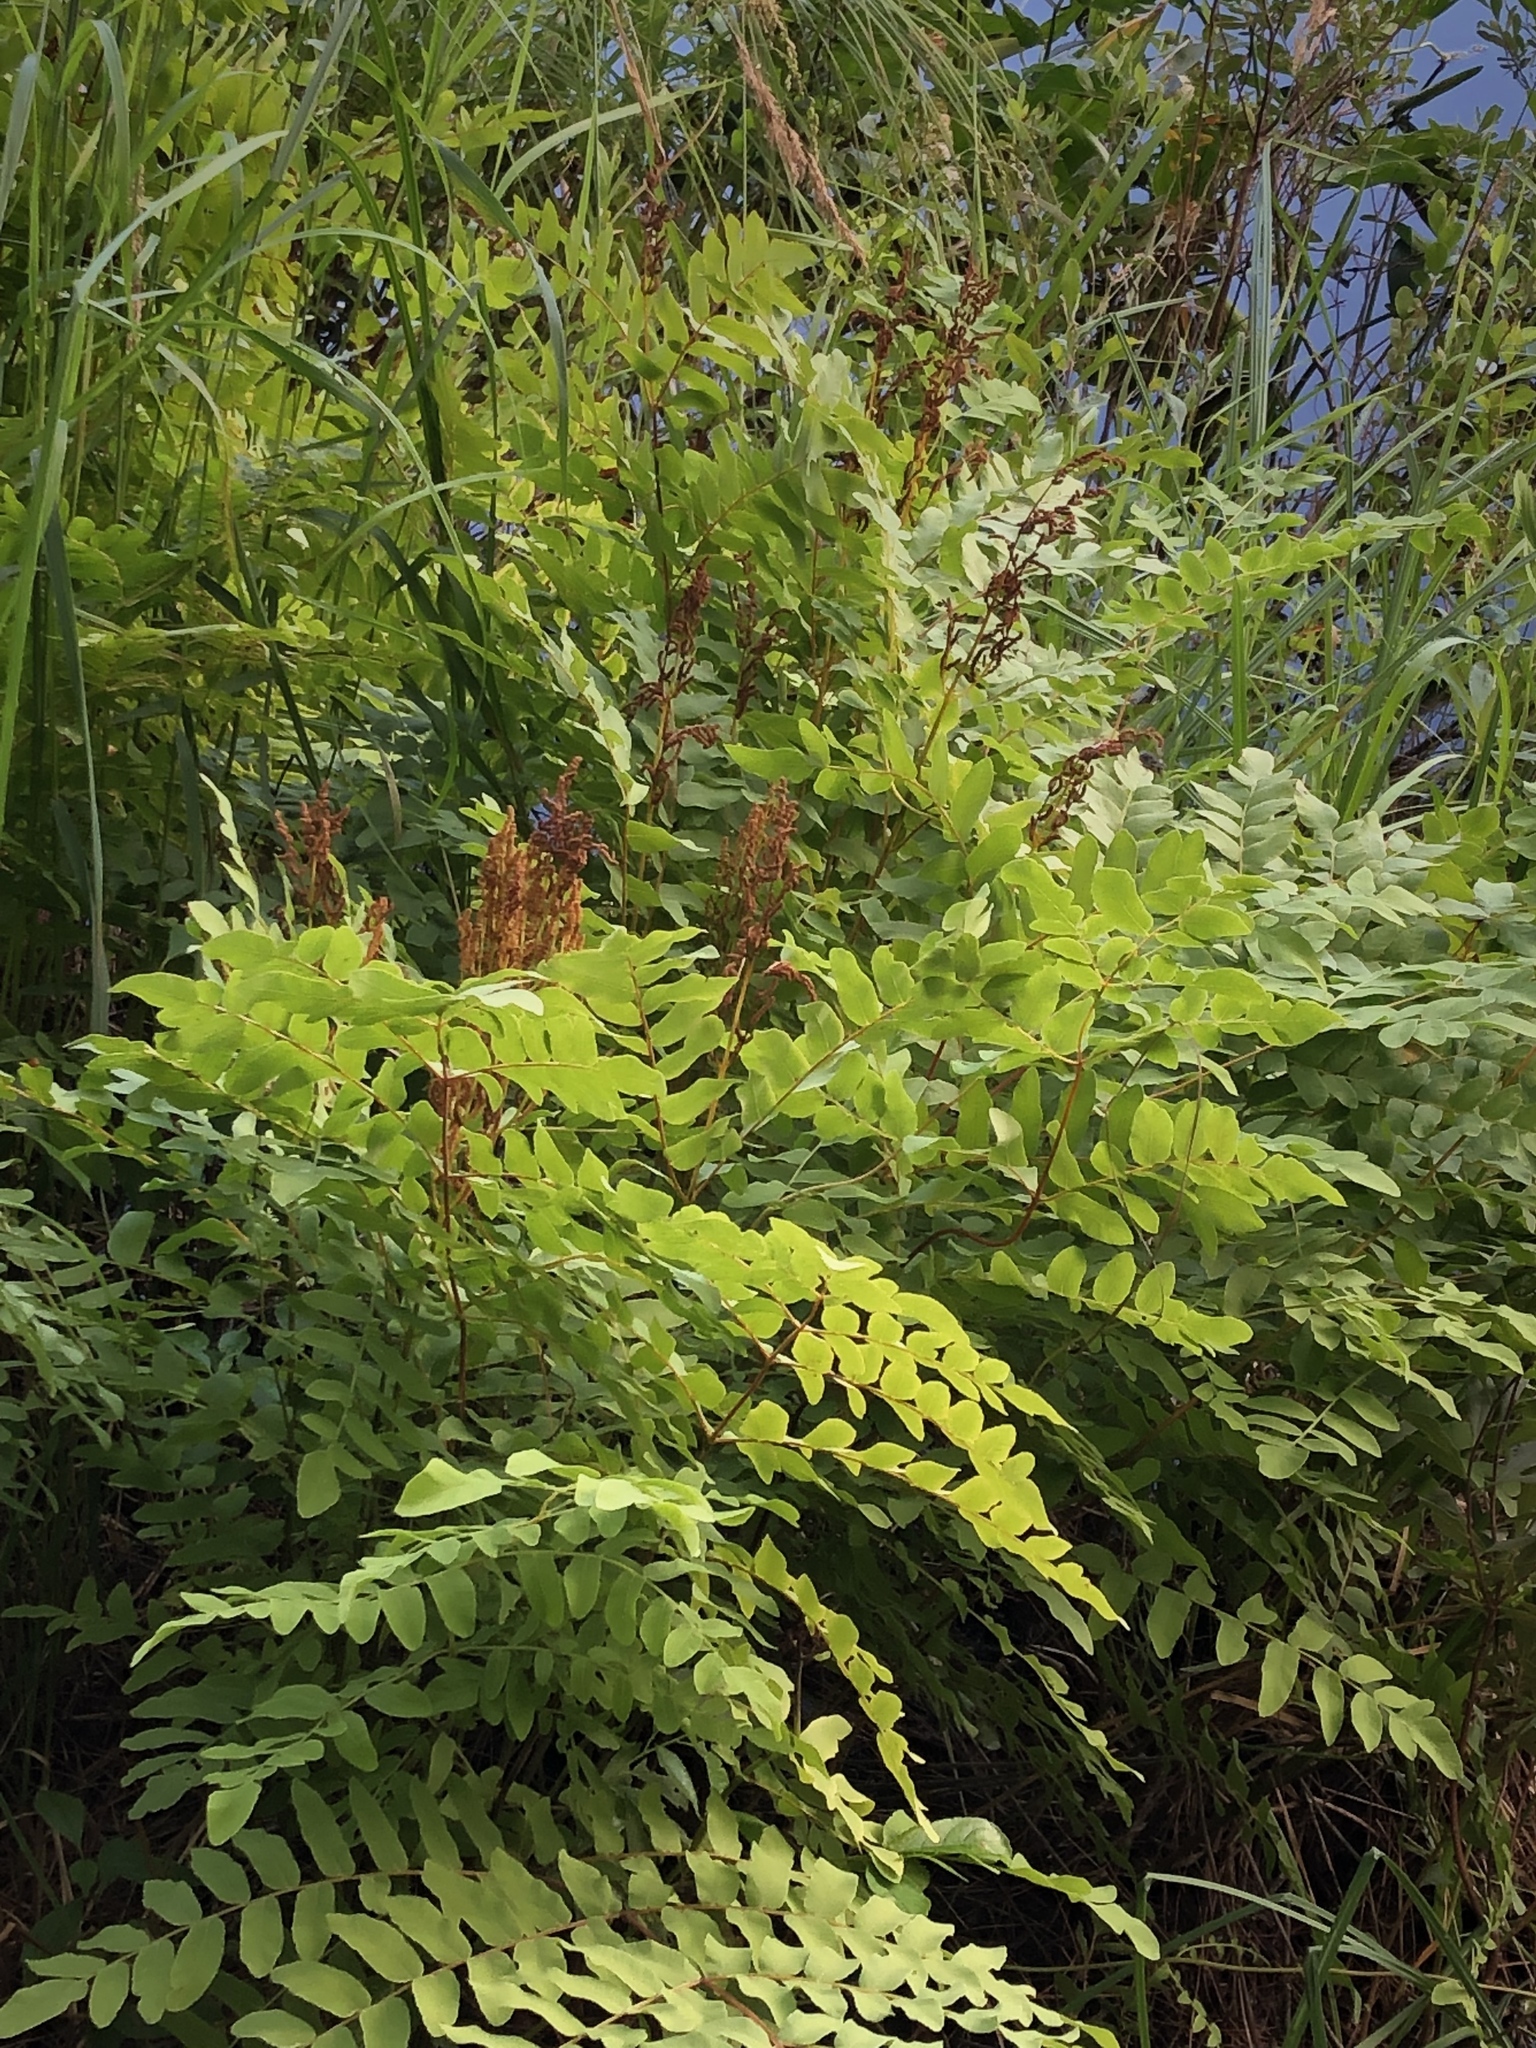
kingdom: Plantae
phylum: Tracheophyta
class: Polypodiopsida
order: Osmundales
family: Osmundaceae
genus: Osmunda
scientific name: Osmunda spectabilis
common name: American royal fern
